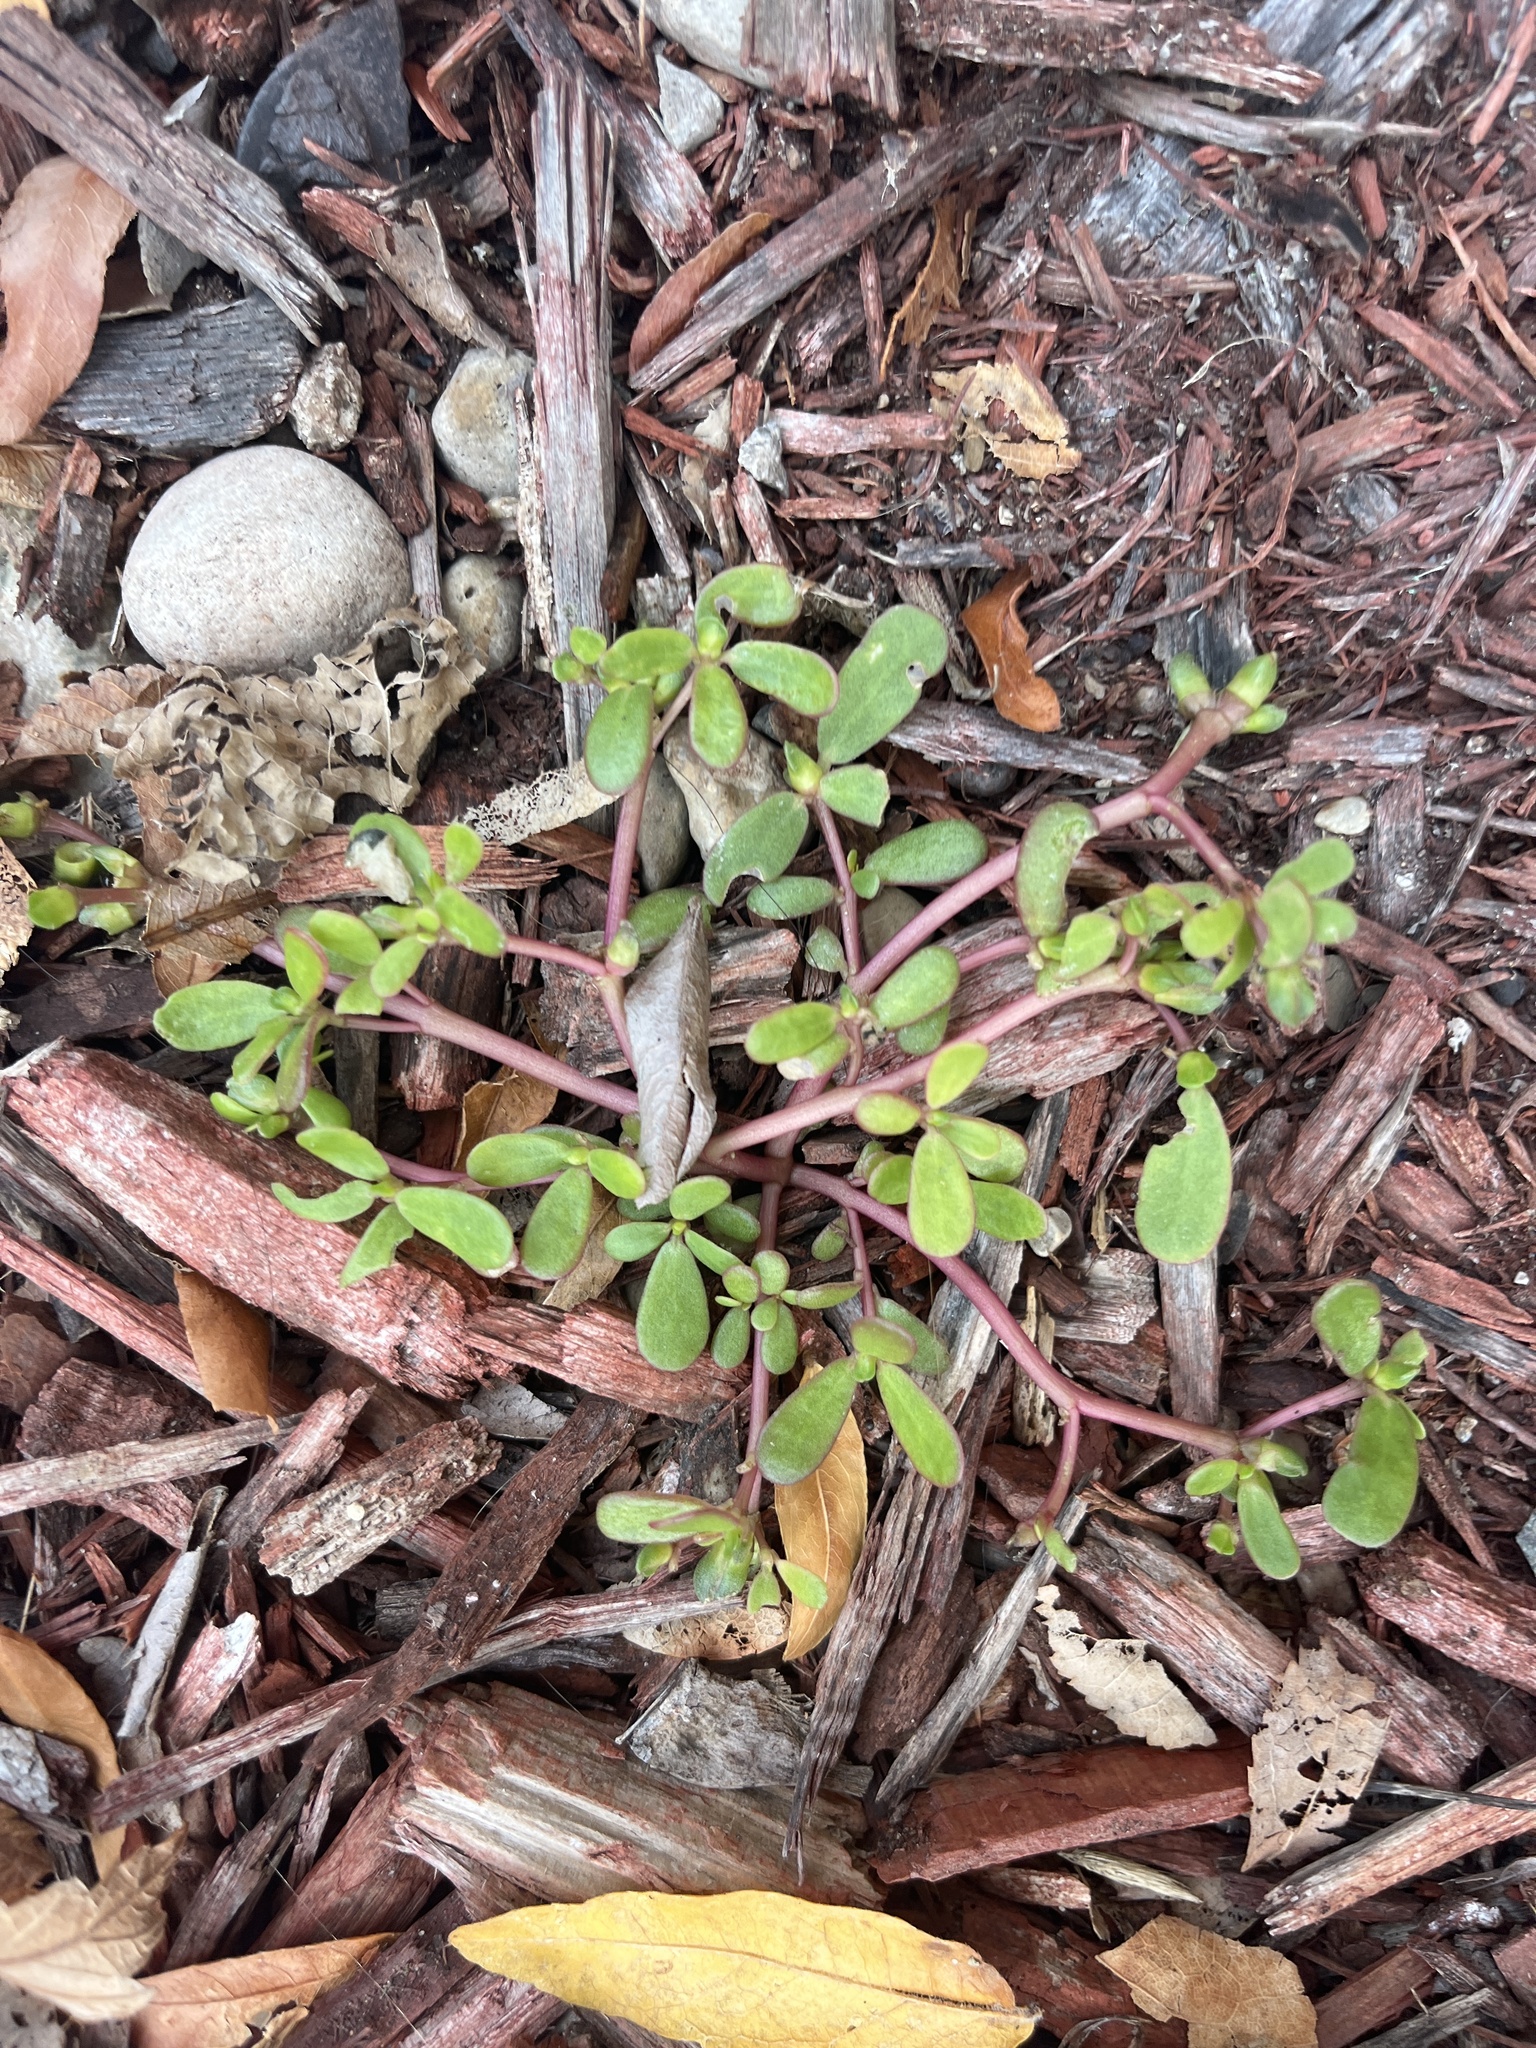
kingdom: Plantae
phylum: Tracheophyta
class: Magnoliopsida
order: Caryophyllales
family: Portulacaceae
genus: Portulaca
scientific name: Portulaca oleracea
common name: Common purslane
